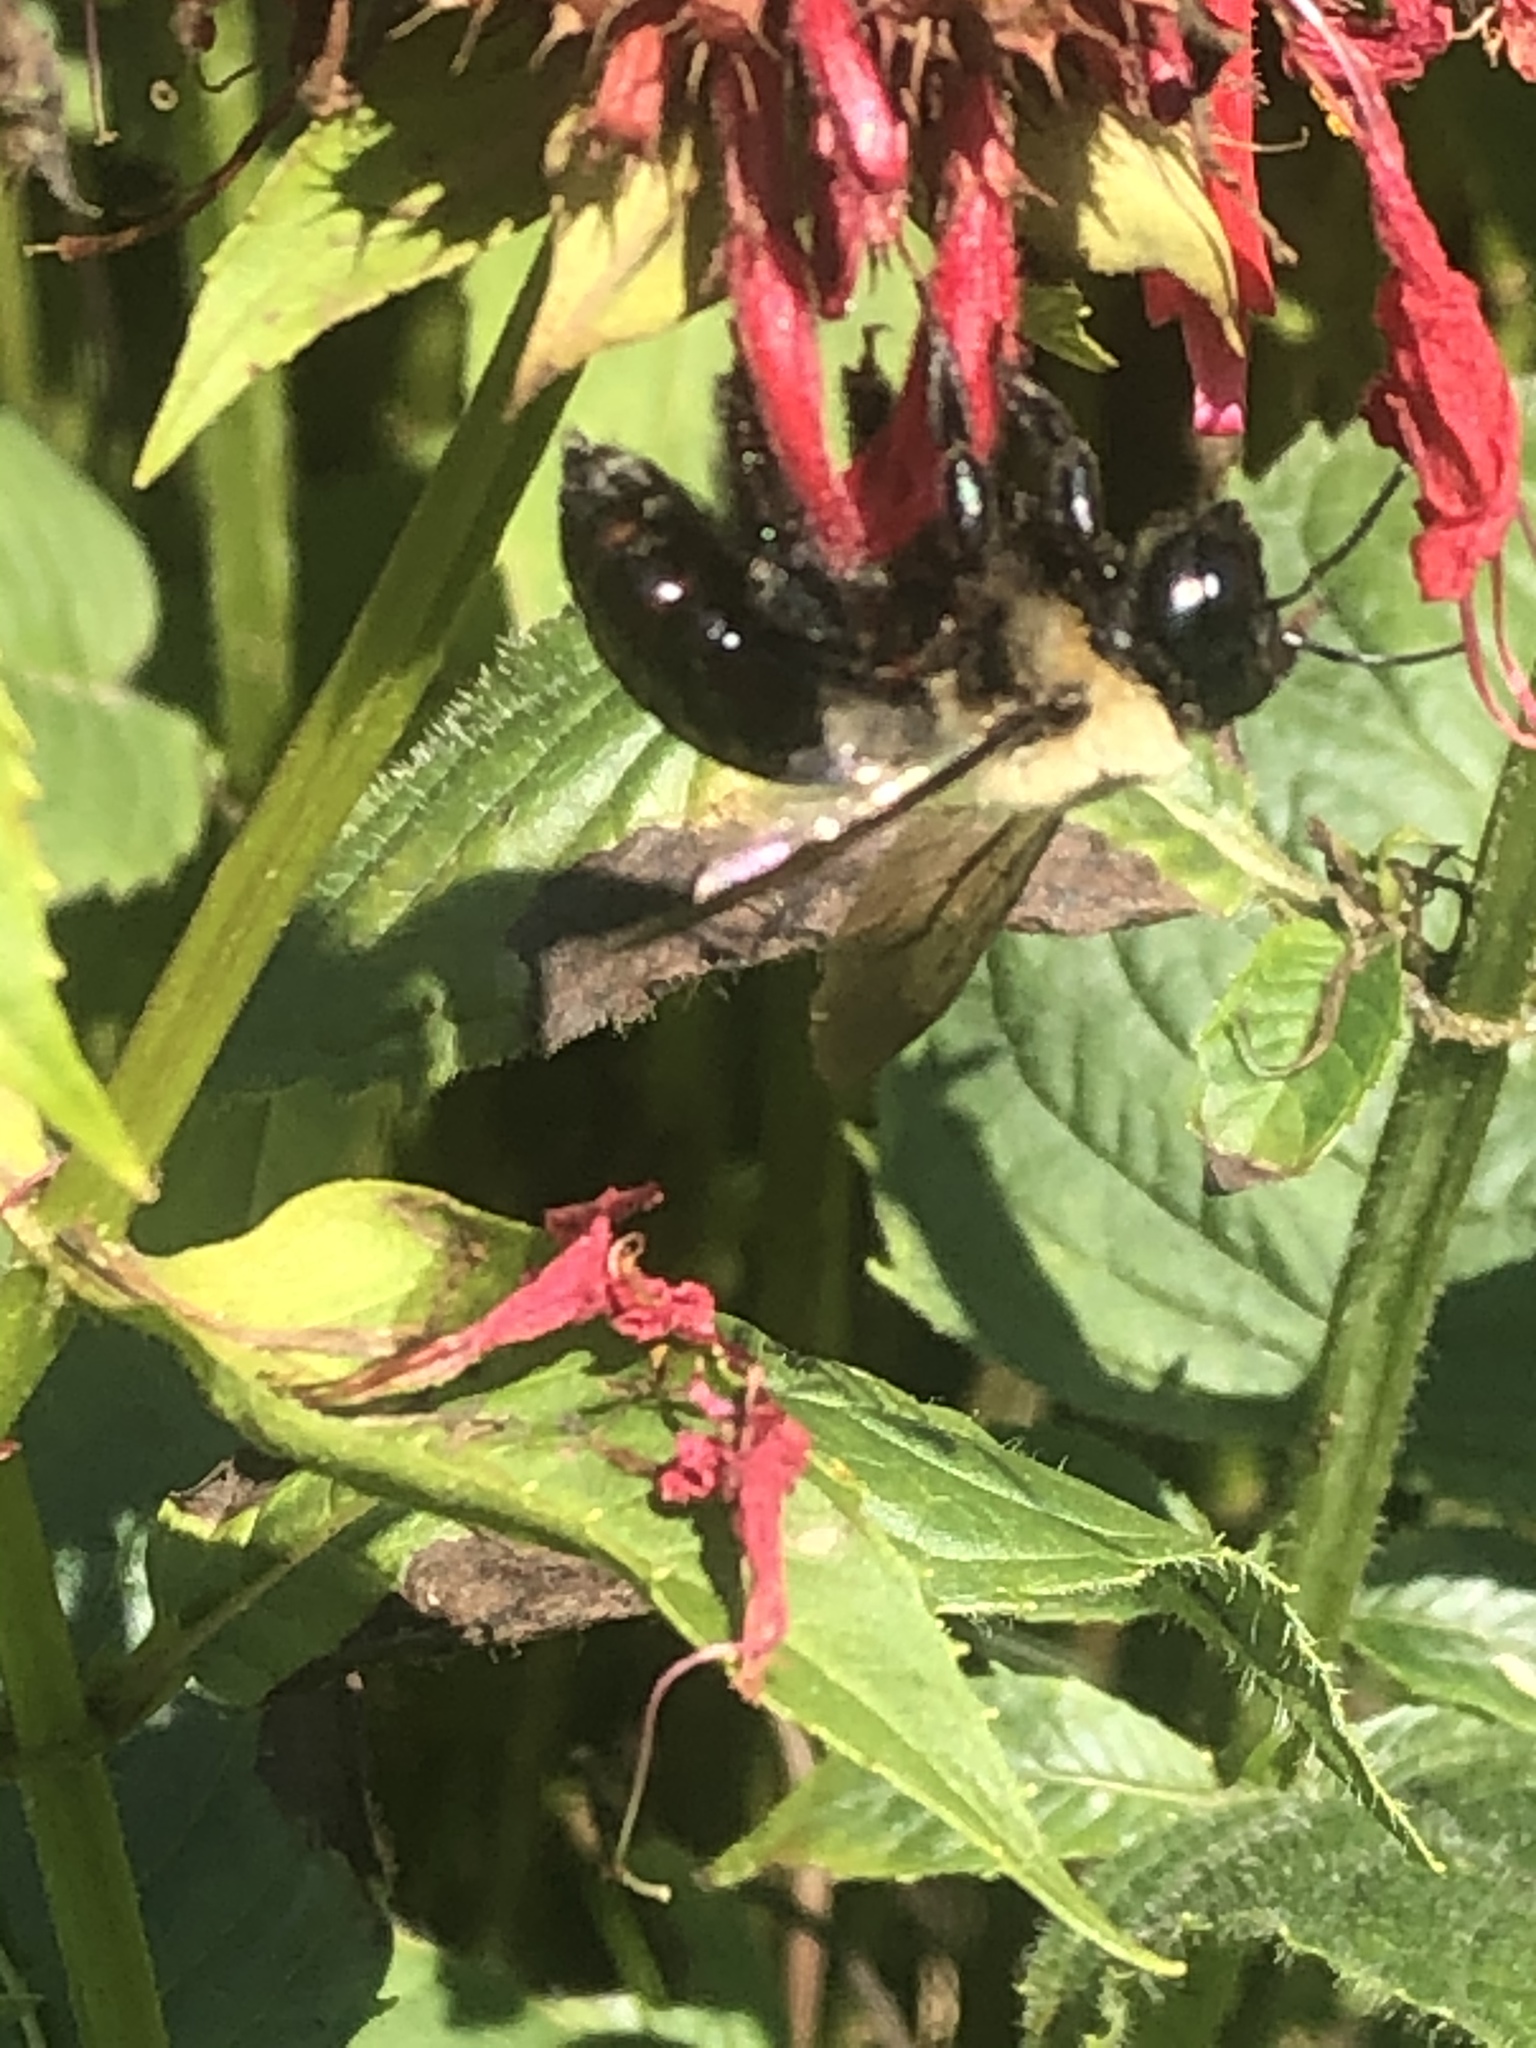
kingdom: Animalia
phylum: Arthropoda
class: Insecta
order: Hymenoptera
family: Apidae
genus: Xylocopa
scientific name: Xylocopa virginica
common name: Carpenter bee
